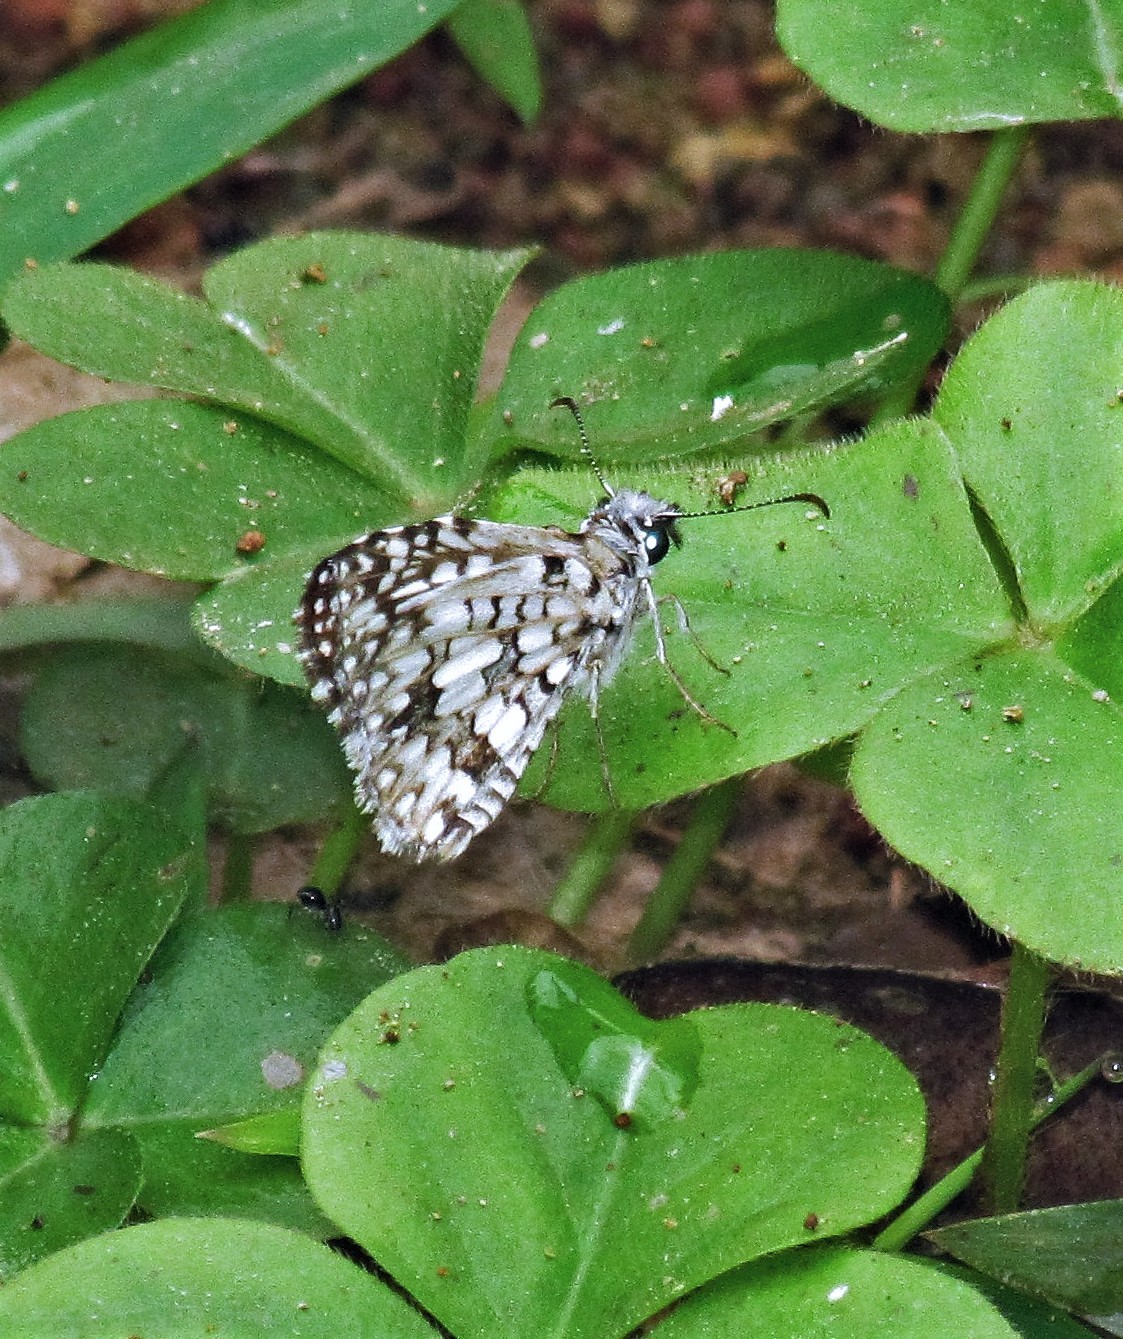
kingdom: Animalia
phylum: Arthropoda
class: Insecta
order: Lepidoptera
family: Hesperiidae
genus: Pyrgus
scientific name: Pyrgus oileus
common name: Tropical checkered-skipper
